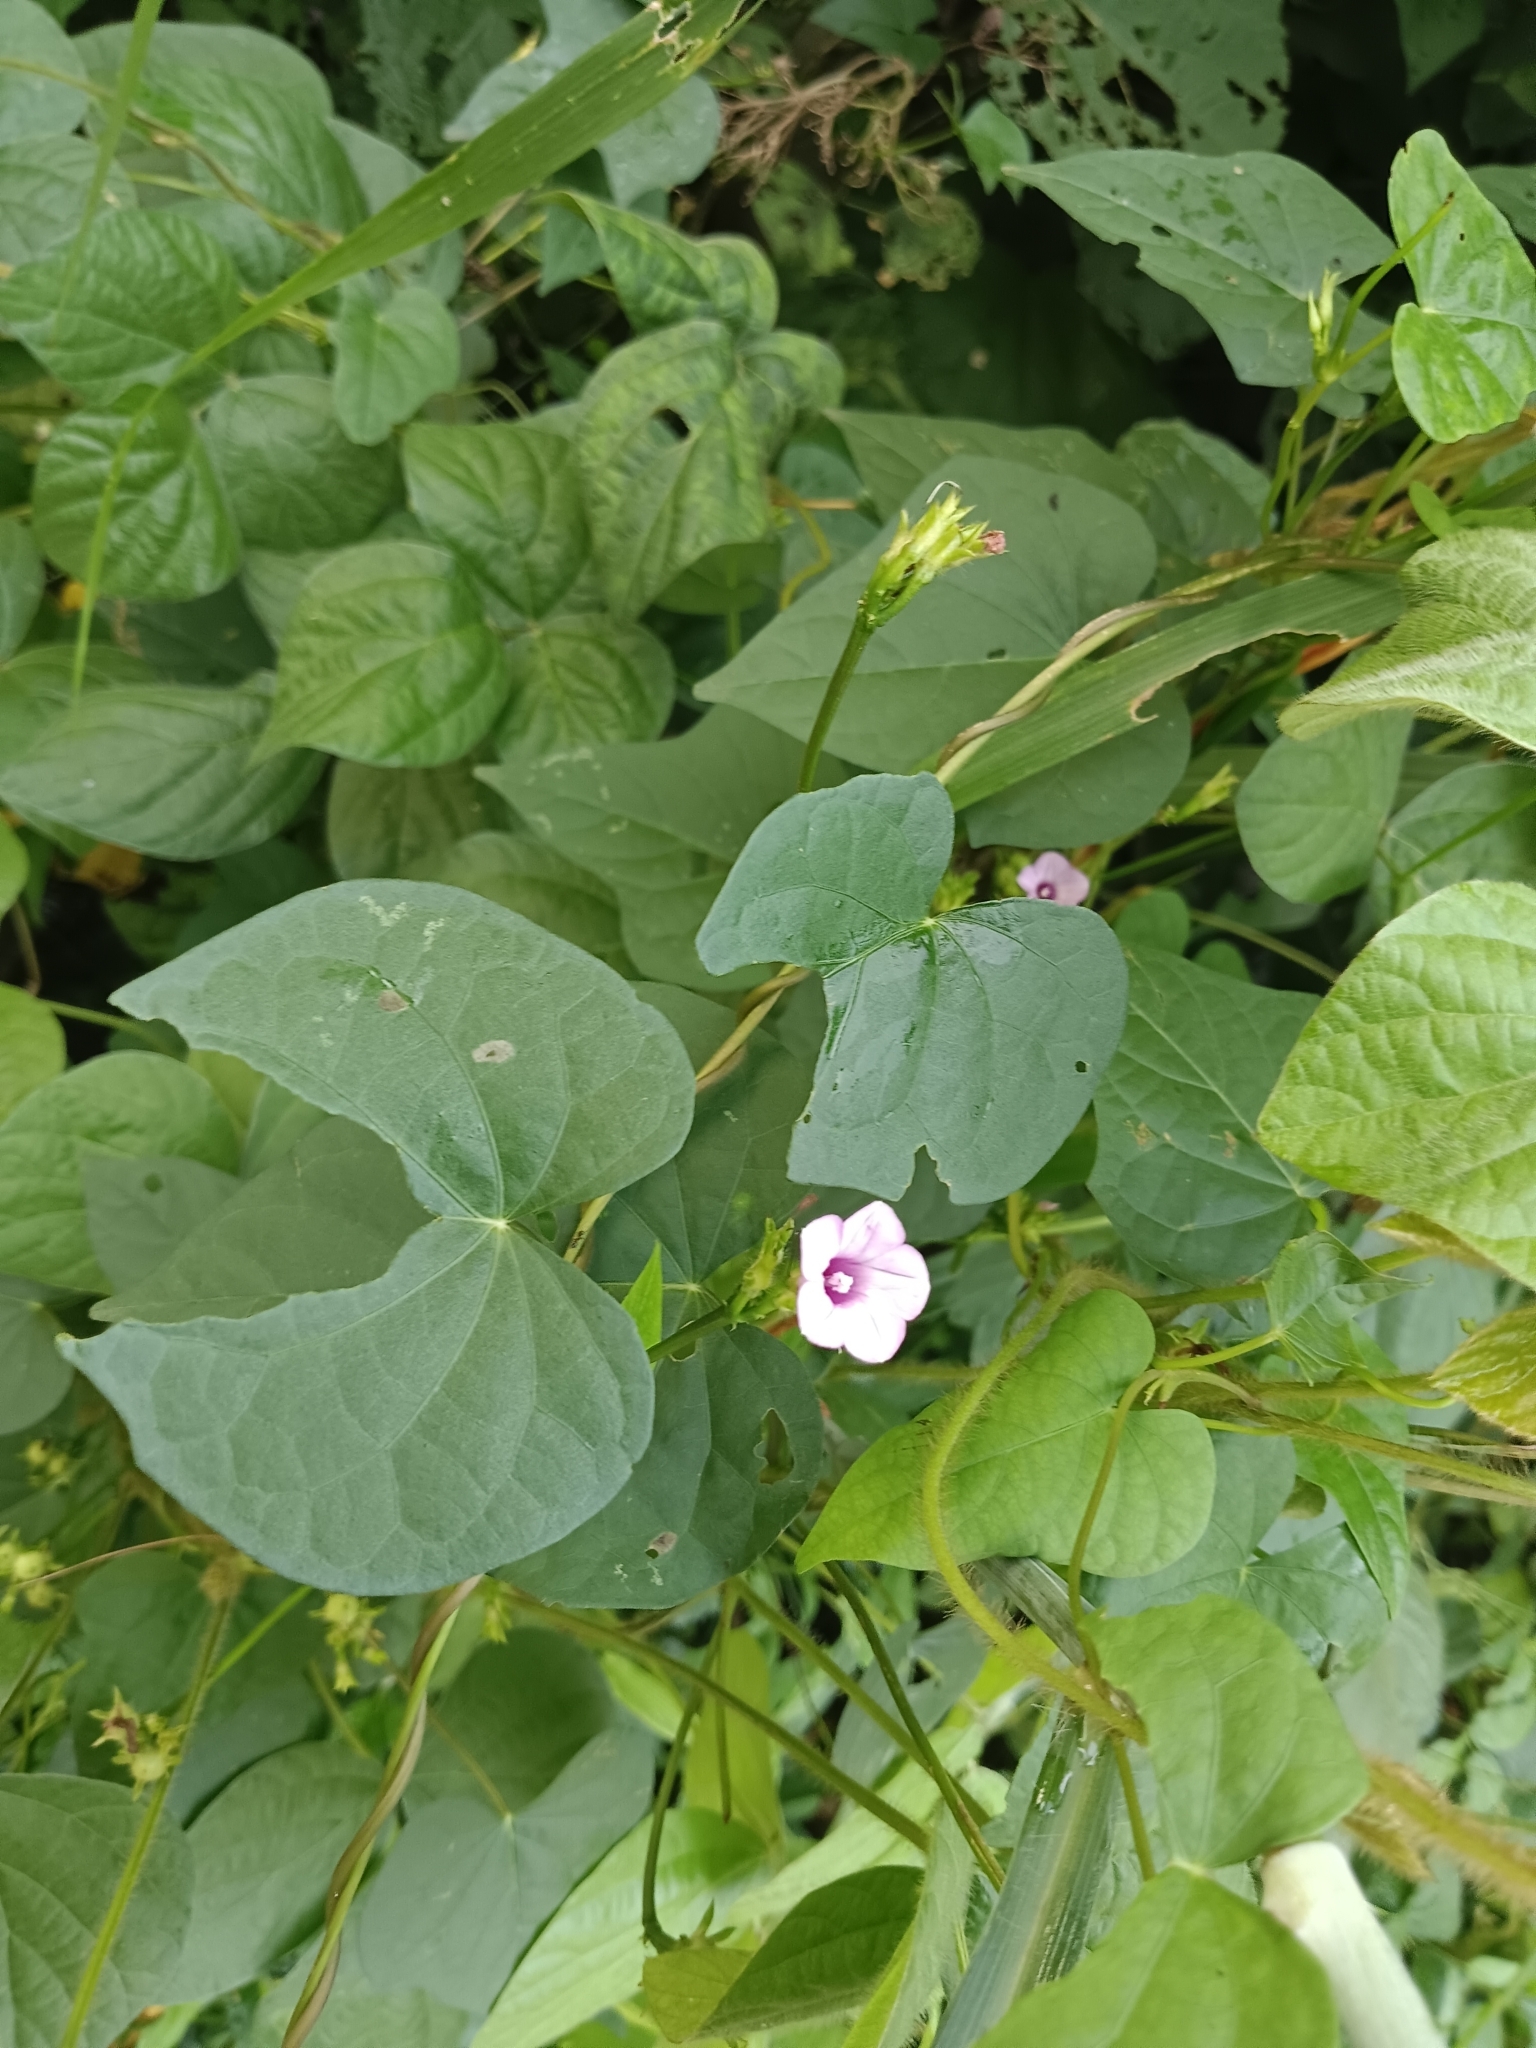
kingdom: Plantae
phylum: Tracheophyta
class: Magnoliopsida
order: Solanales
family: Convolvulaceae
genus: Ipomoea
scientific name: Ipomoea triloba
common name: Little-bell
